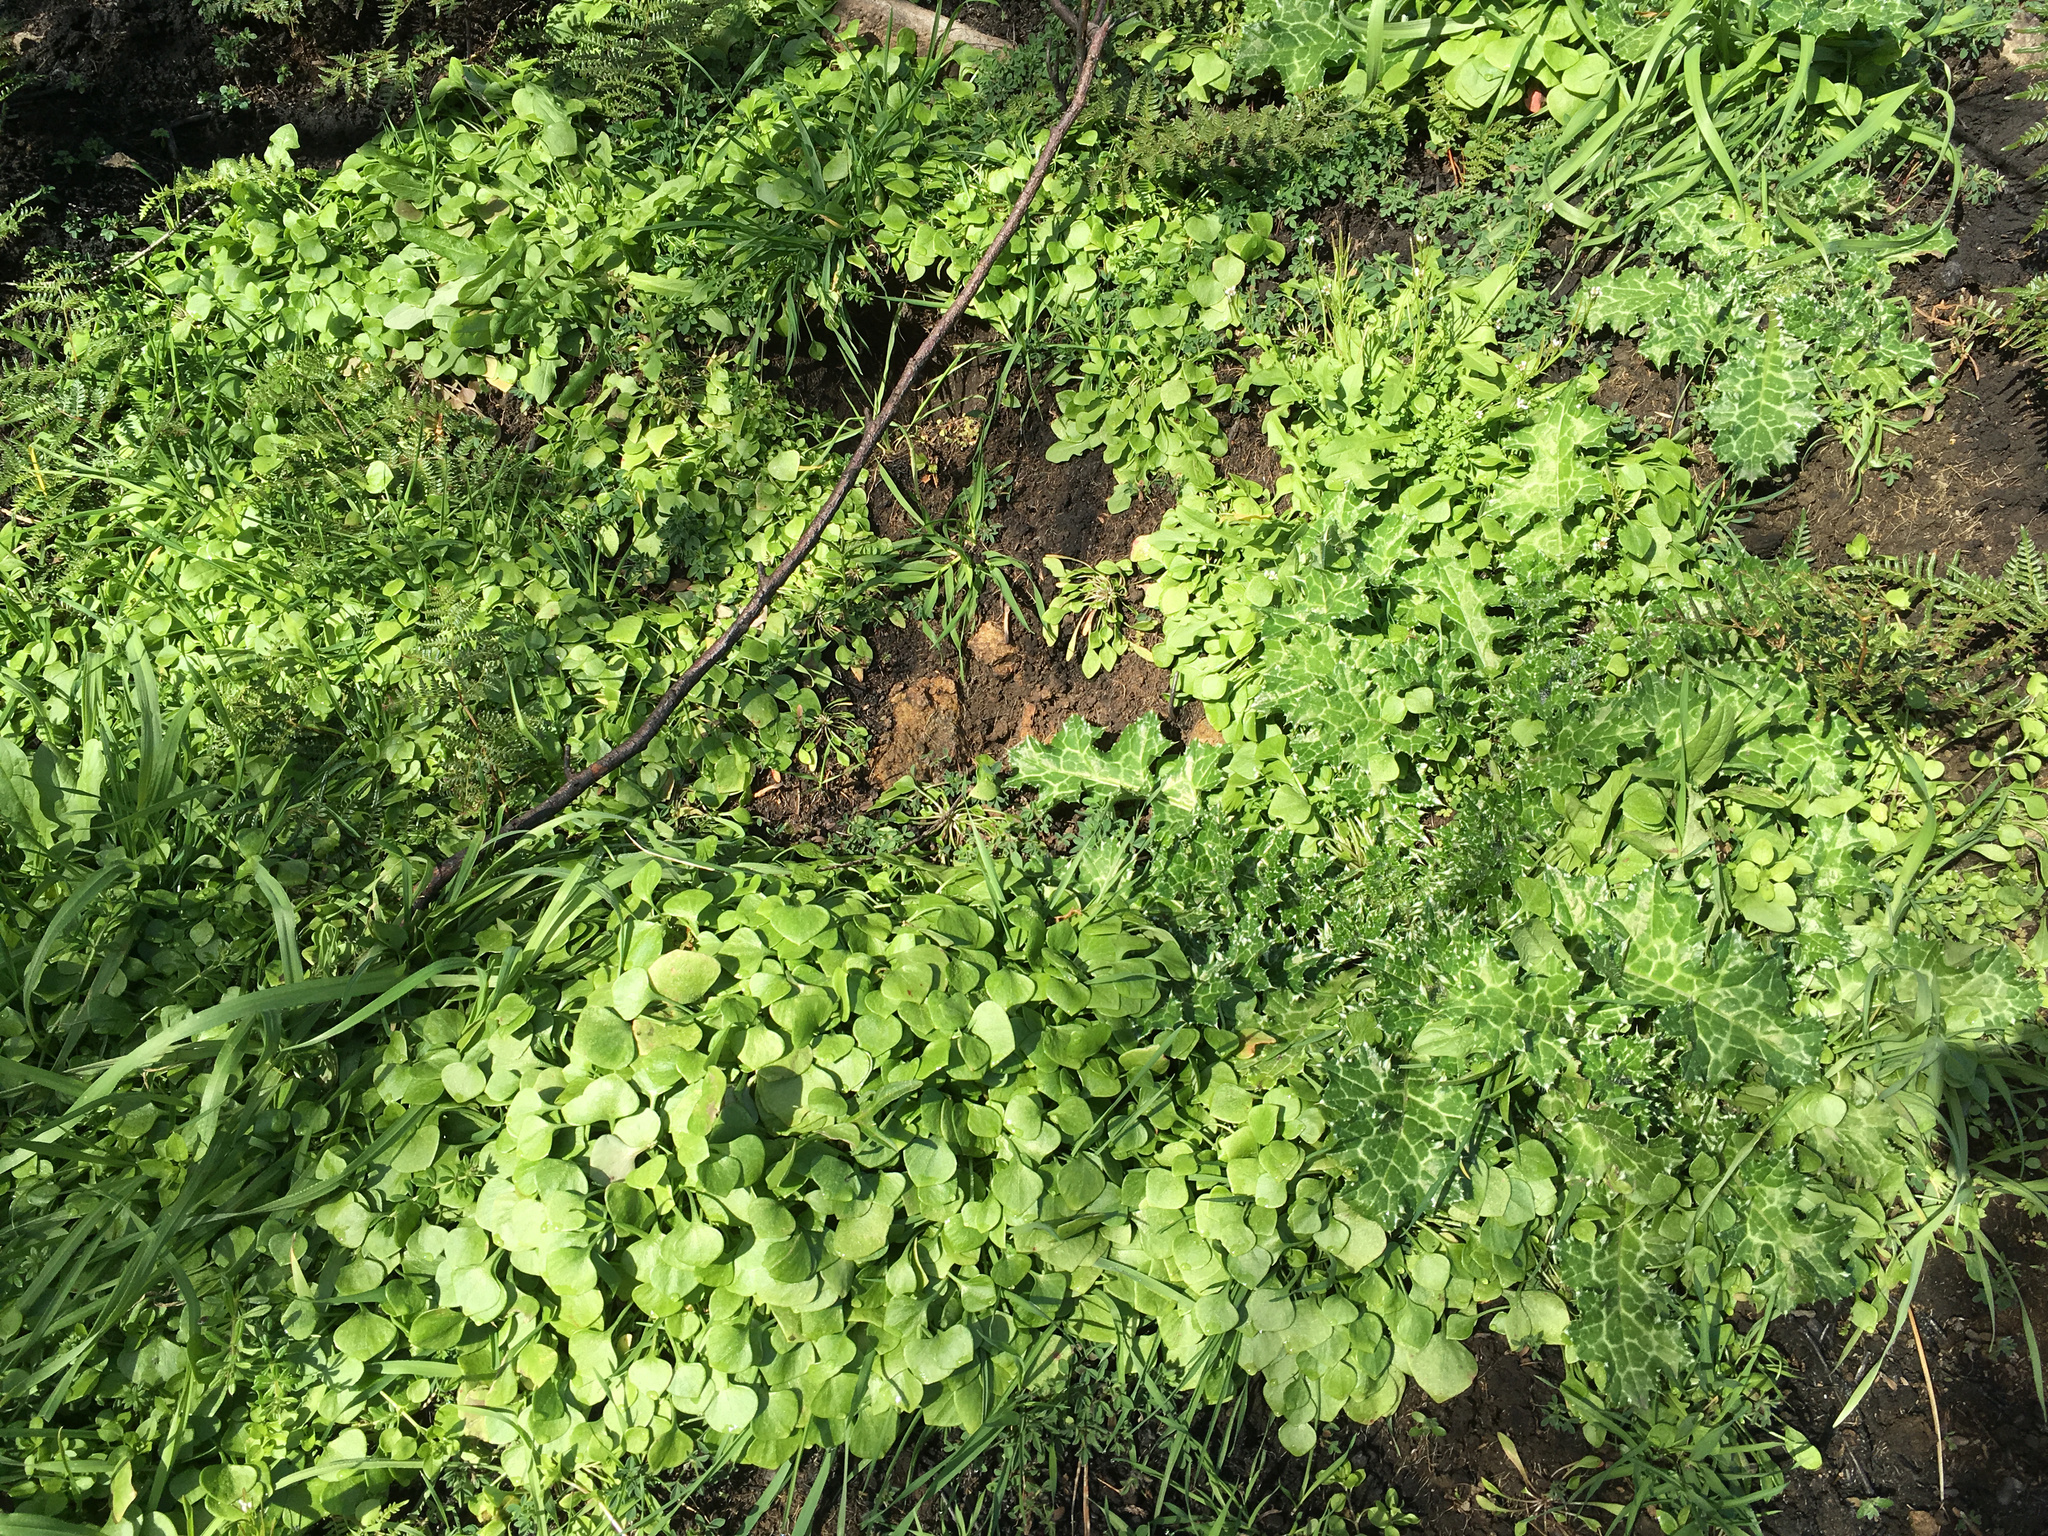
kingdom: Plantae
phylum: Tracheophyta
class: Magnoliopsida
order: Caryophyllales
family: Montiaceae
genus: Claytonia
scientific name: Claytonia perfoliata
